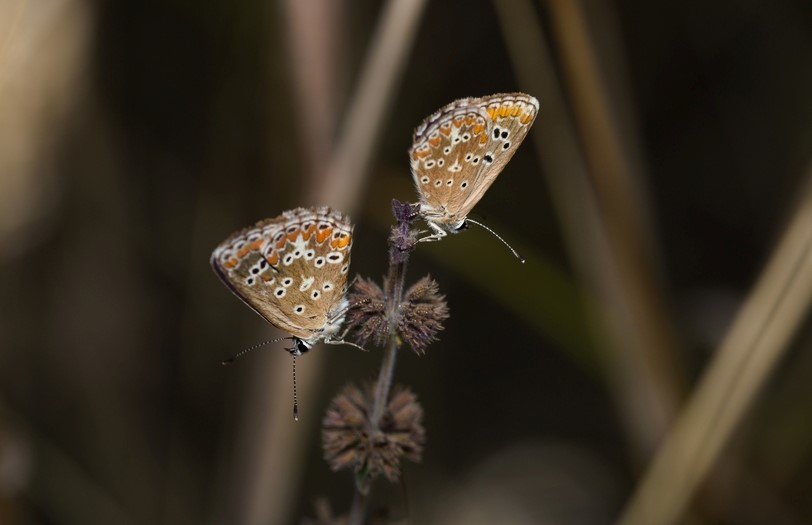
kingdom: Animalia
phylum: Arthropoda
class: Insecta
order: Lepidoptera
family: Lycaenidae
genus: Aricia
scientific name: Aricia cramera
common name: Eschscholtz´s brown  argus
